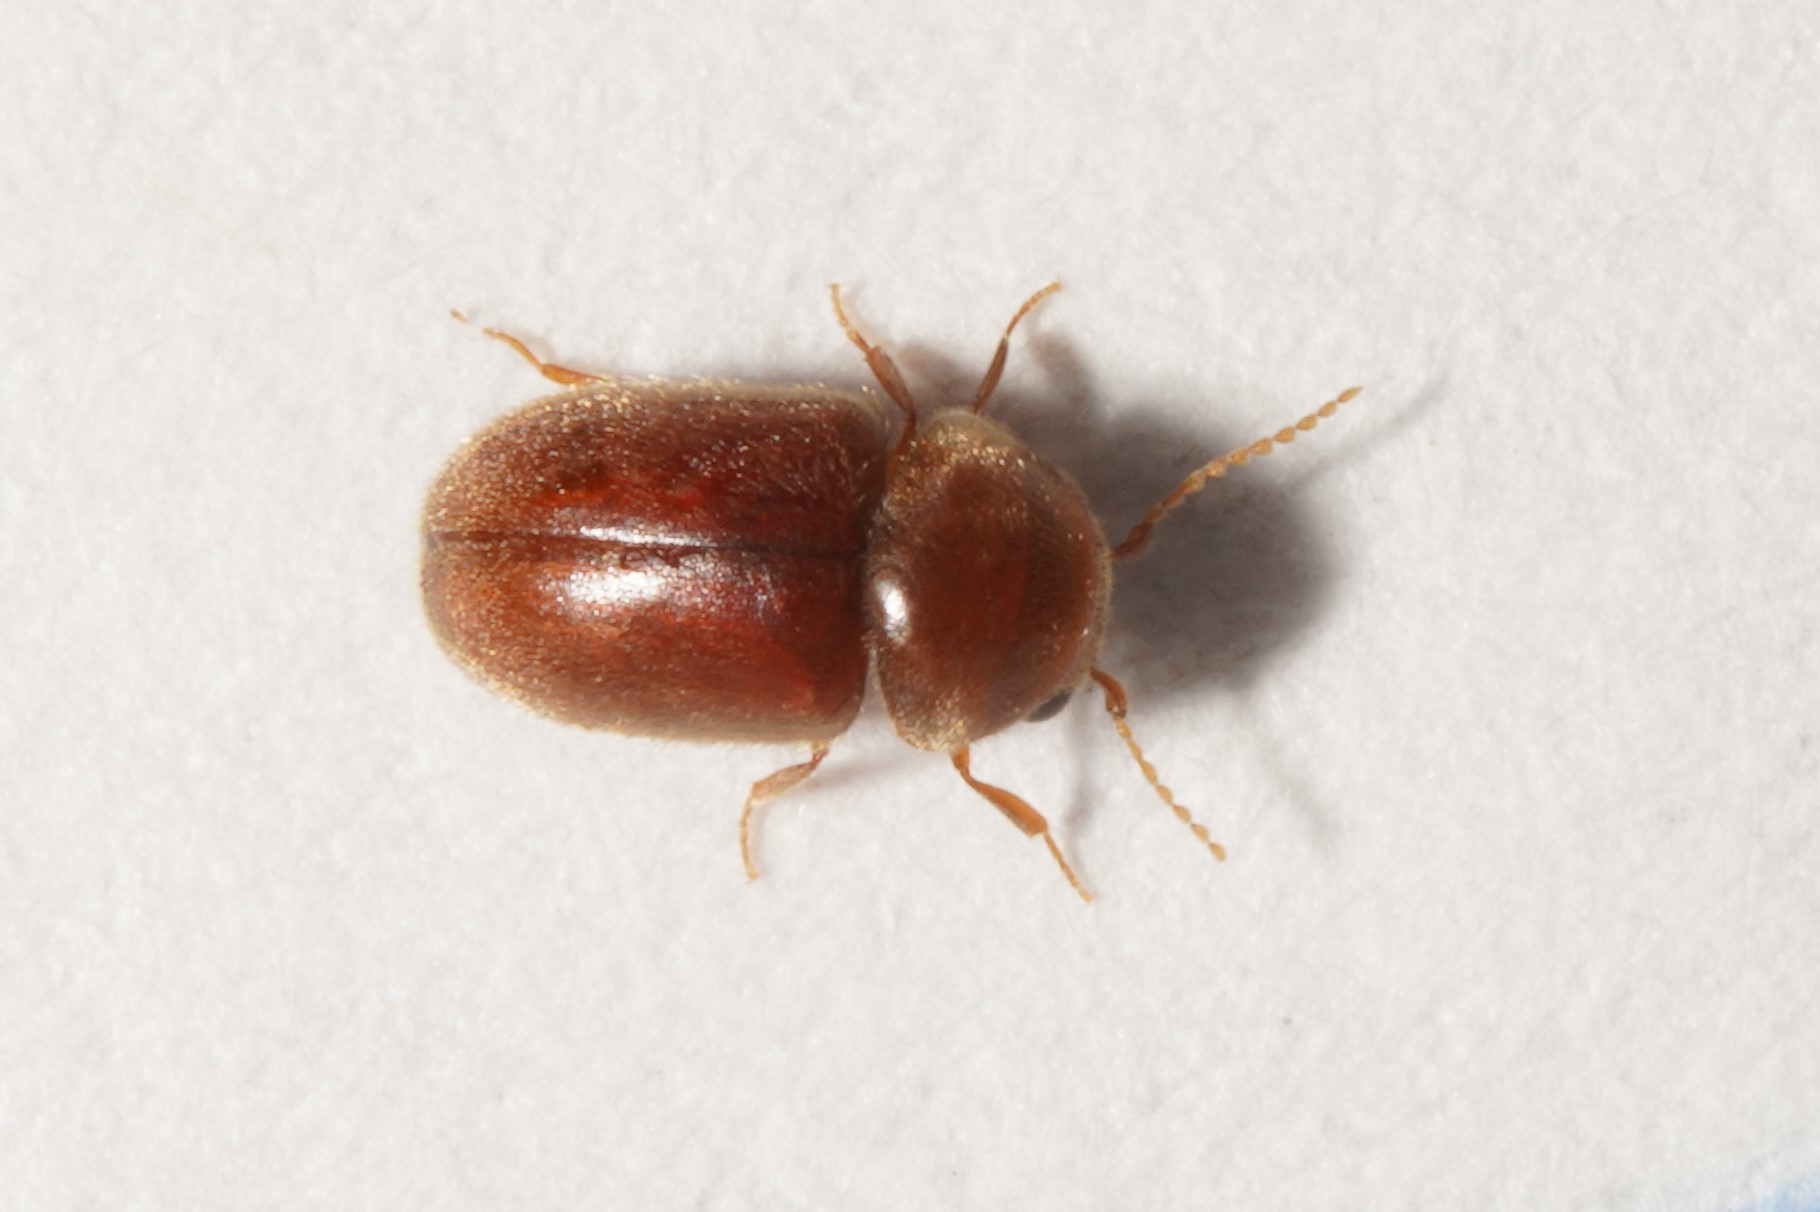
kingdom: Animalia
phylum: Arthropoda
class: Insecta
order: Coleoptera
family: Anobiidae
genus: Lasioderma
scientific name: Lasioderma serricorne
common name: Cigarette beetle
